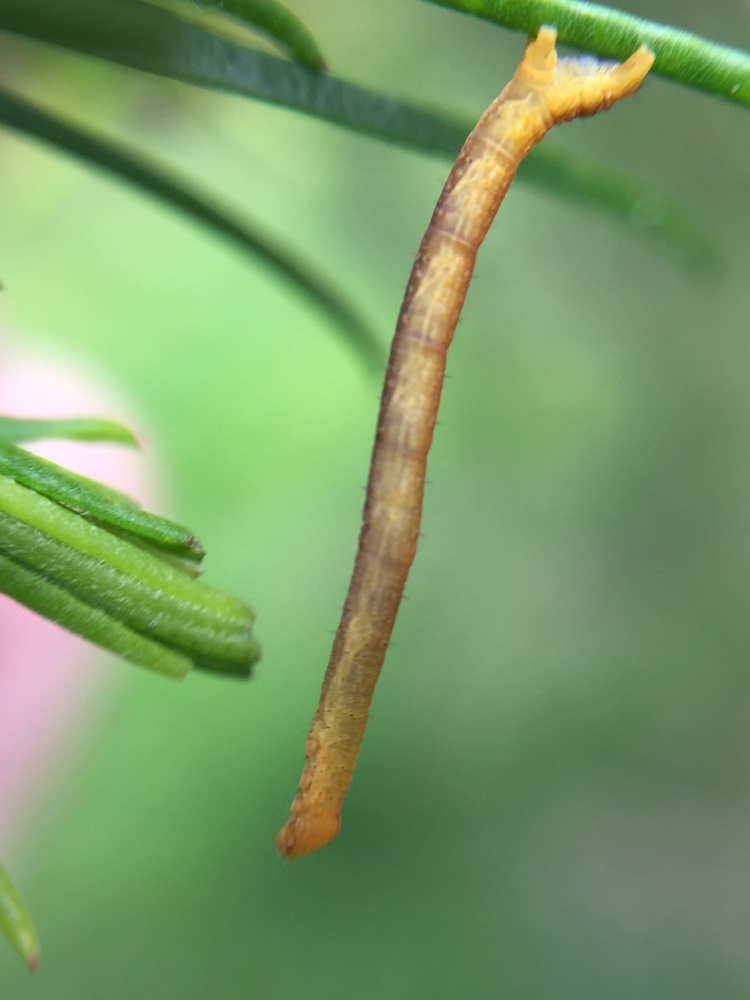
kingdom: Animalia
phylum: Arthropoda
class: Insecta
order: Lepidoptera
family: Geometridae
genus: Cyclophora
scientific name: Cyclophora obstataria
